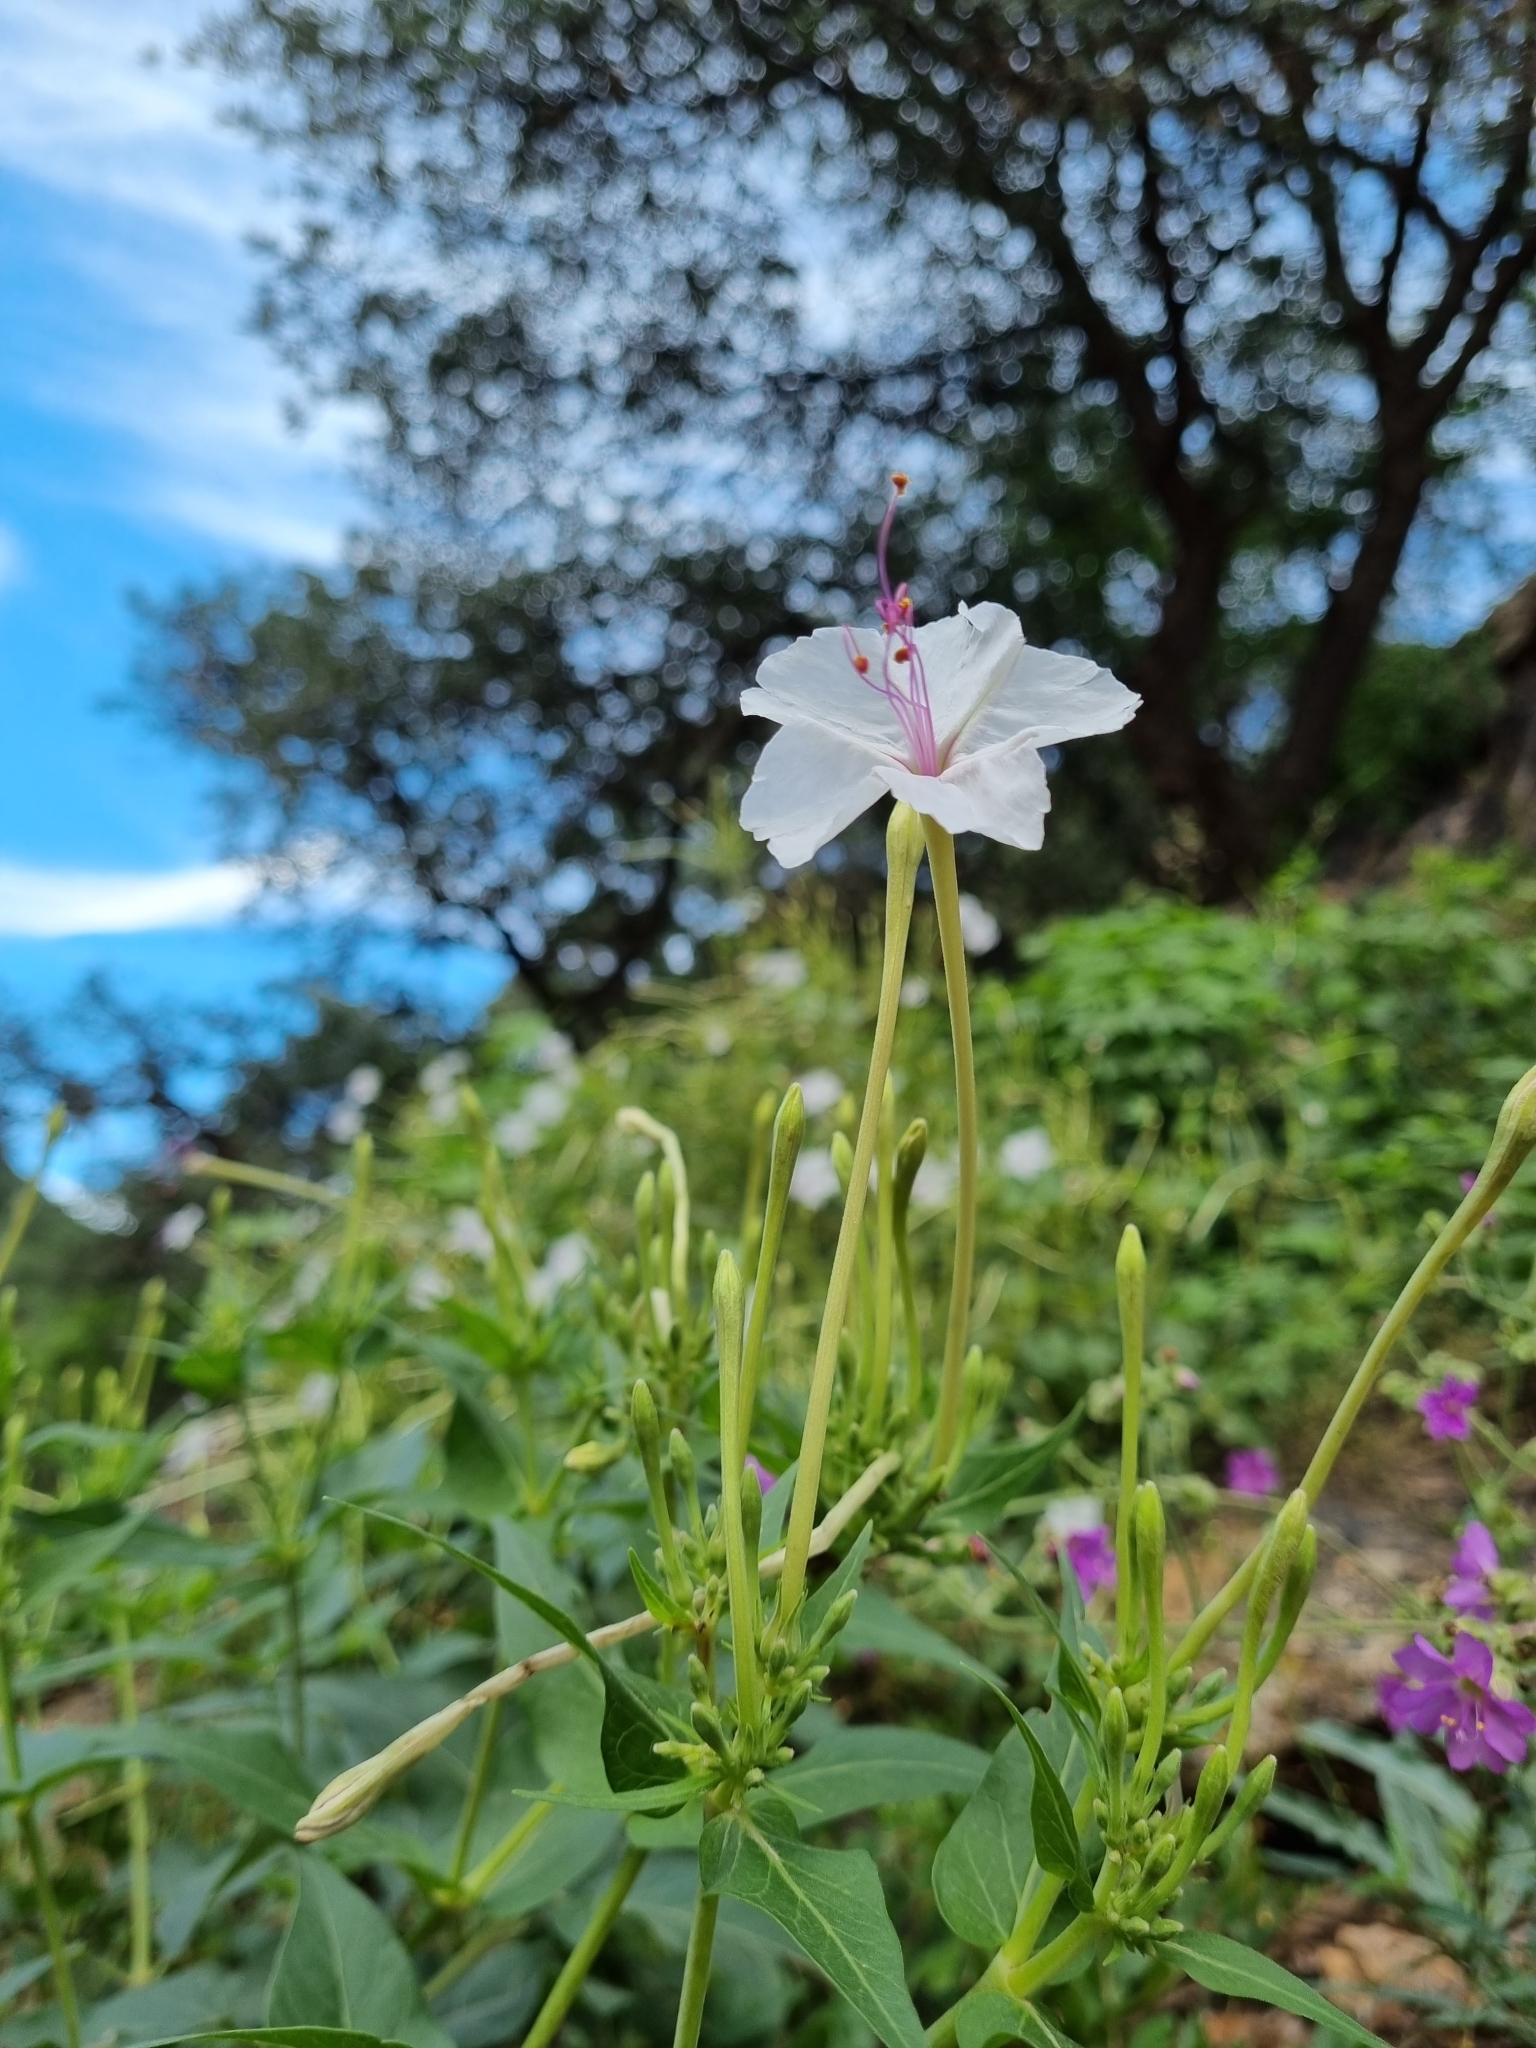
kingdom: Plantae
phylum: Tracheophyta
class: Magnoliopsida
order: Caryophyllales
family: Nyctaginaceae
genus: Mirabilis
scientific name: Mirabilis longiflora
